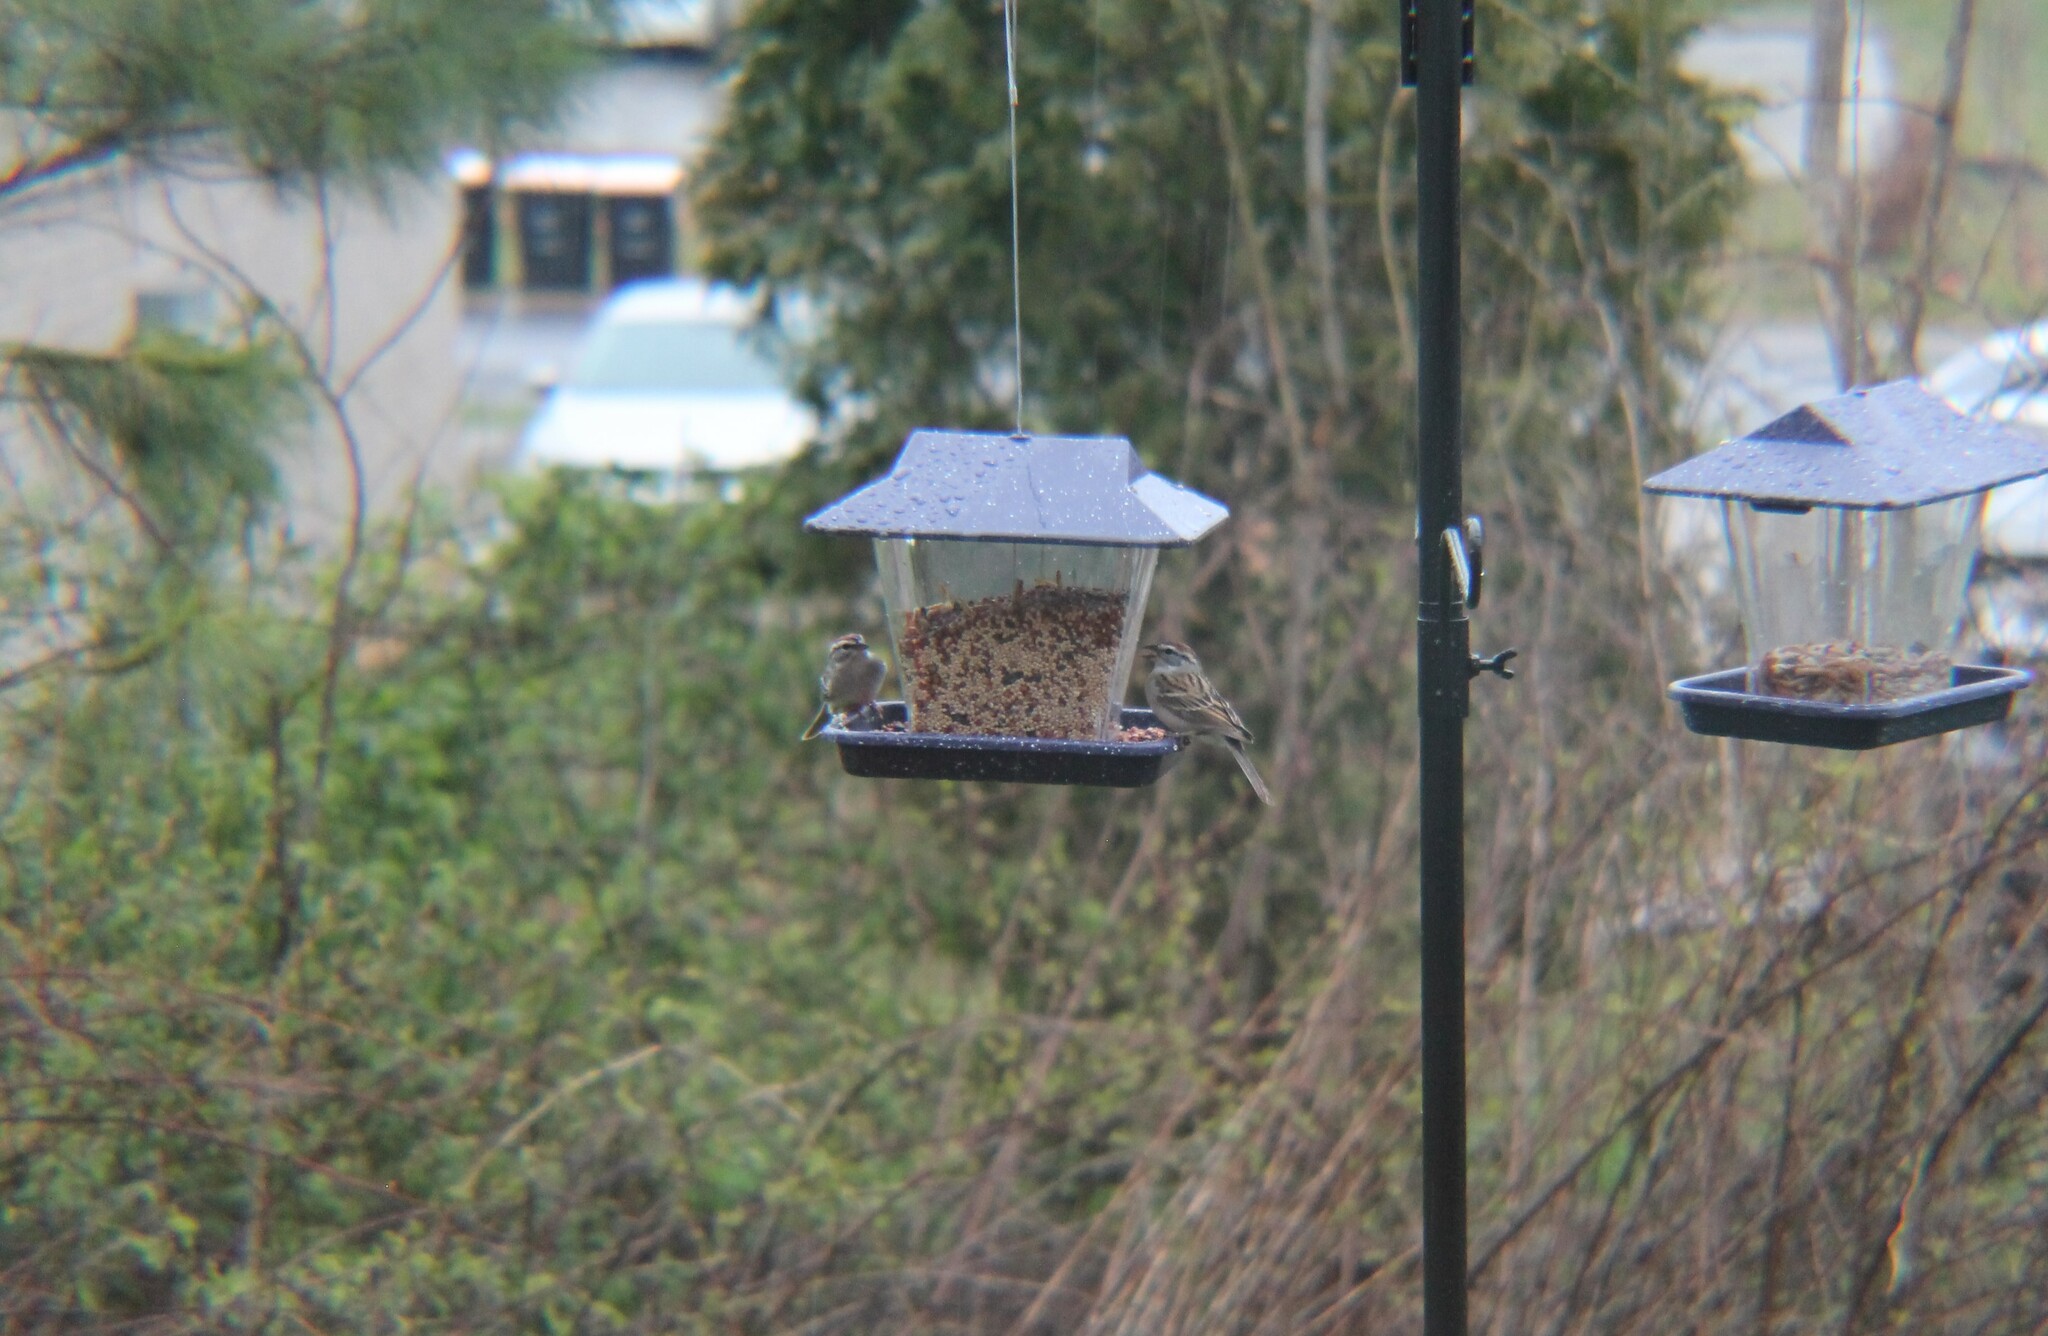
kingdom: Animalia
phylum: Chordata
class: Aves
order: Passeriformes
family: Passerellidae
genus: Spizella
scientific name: Spizella passerina
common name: Chipping sparrow
